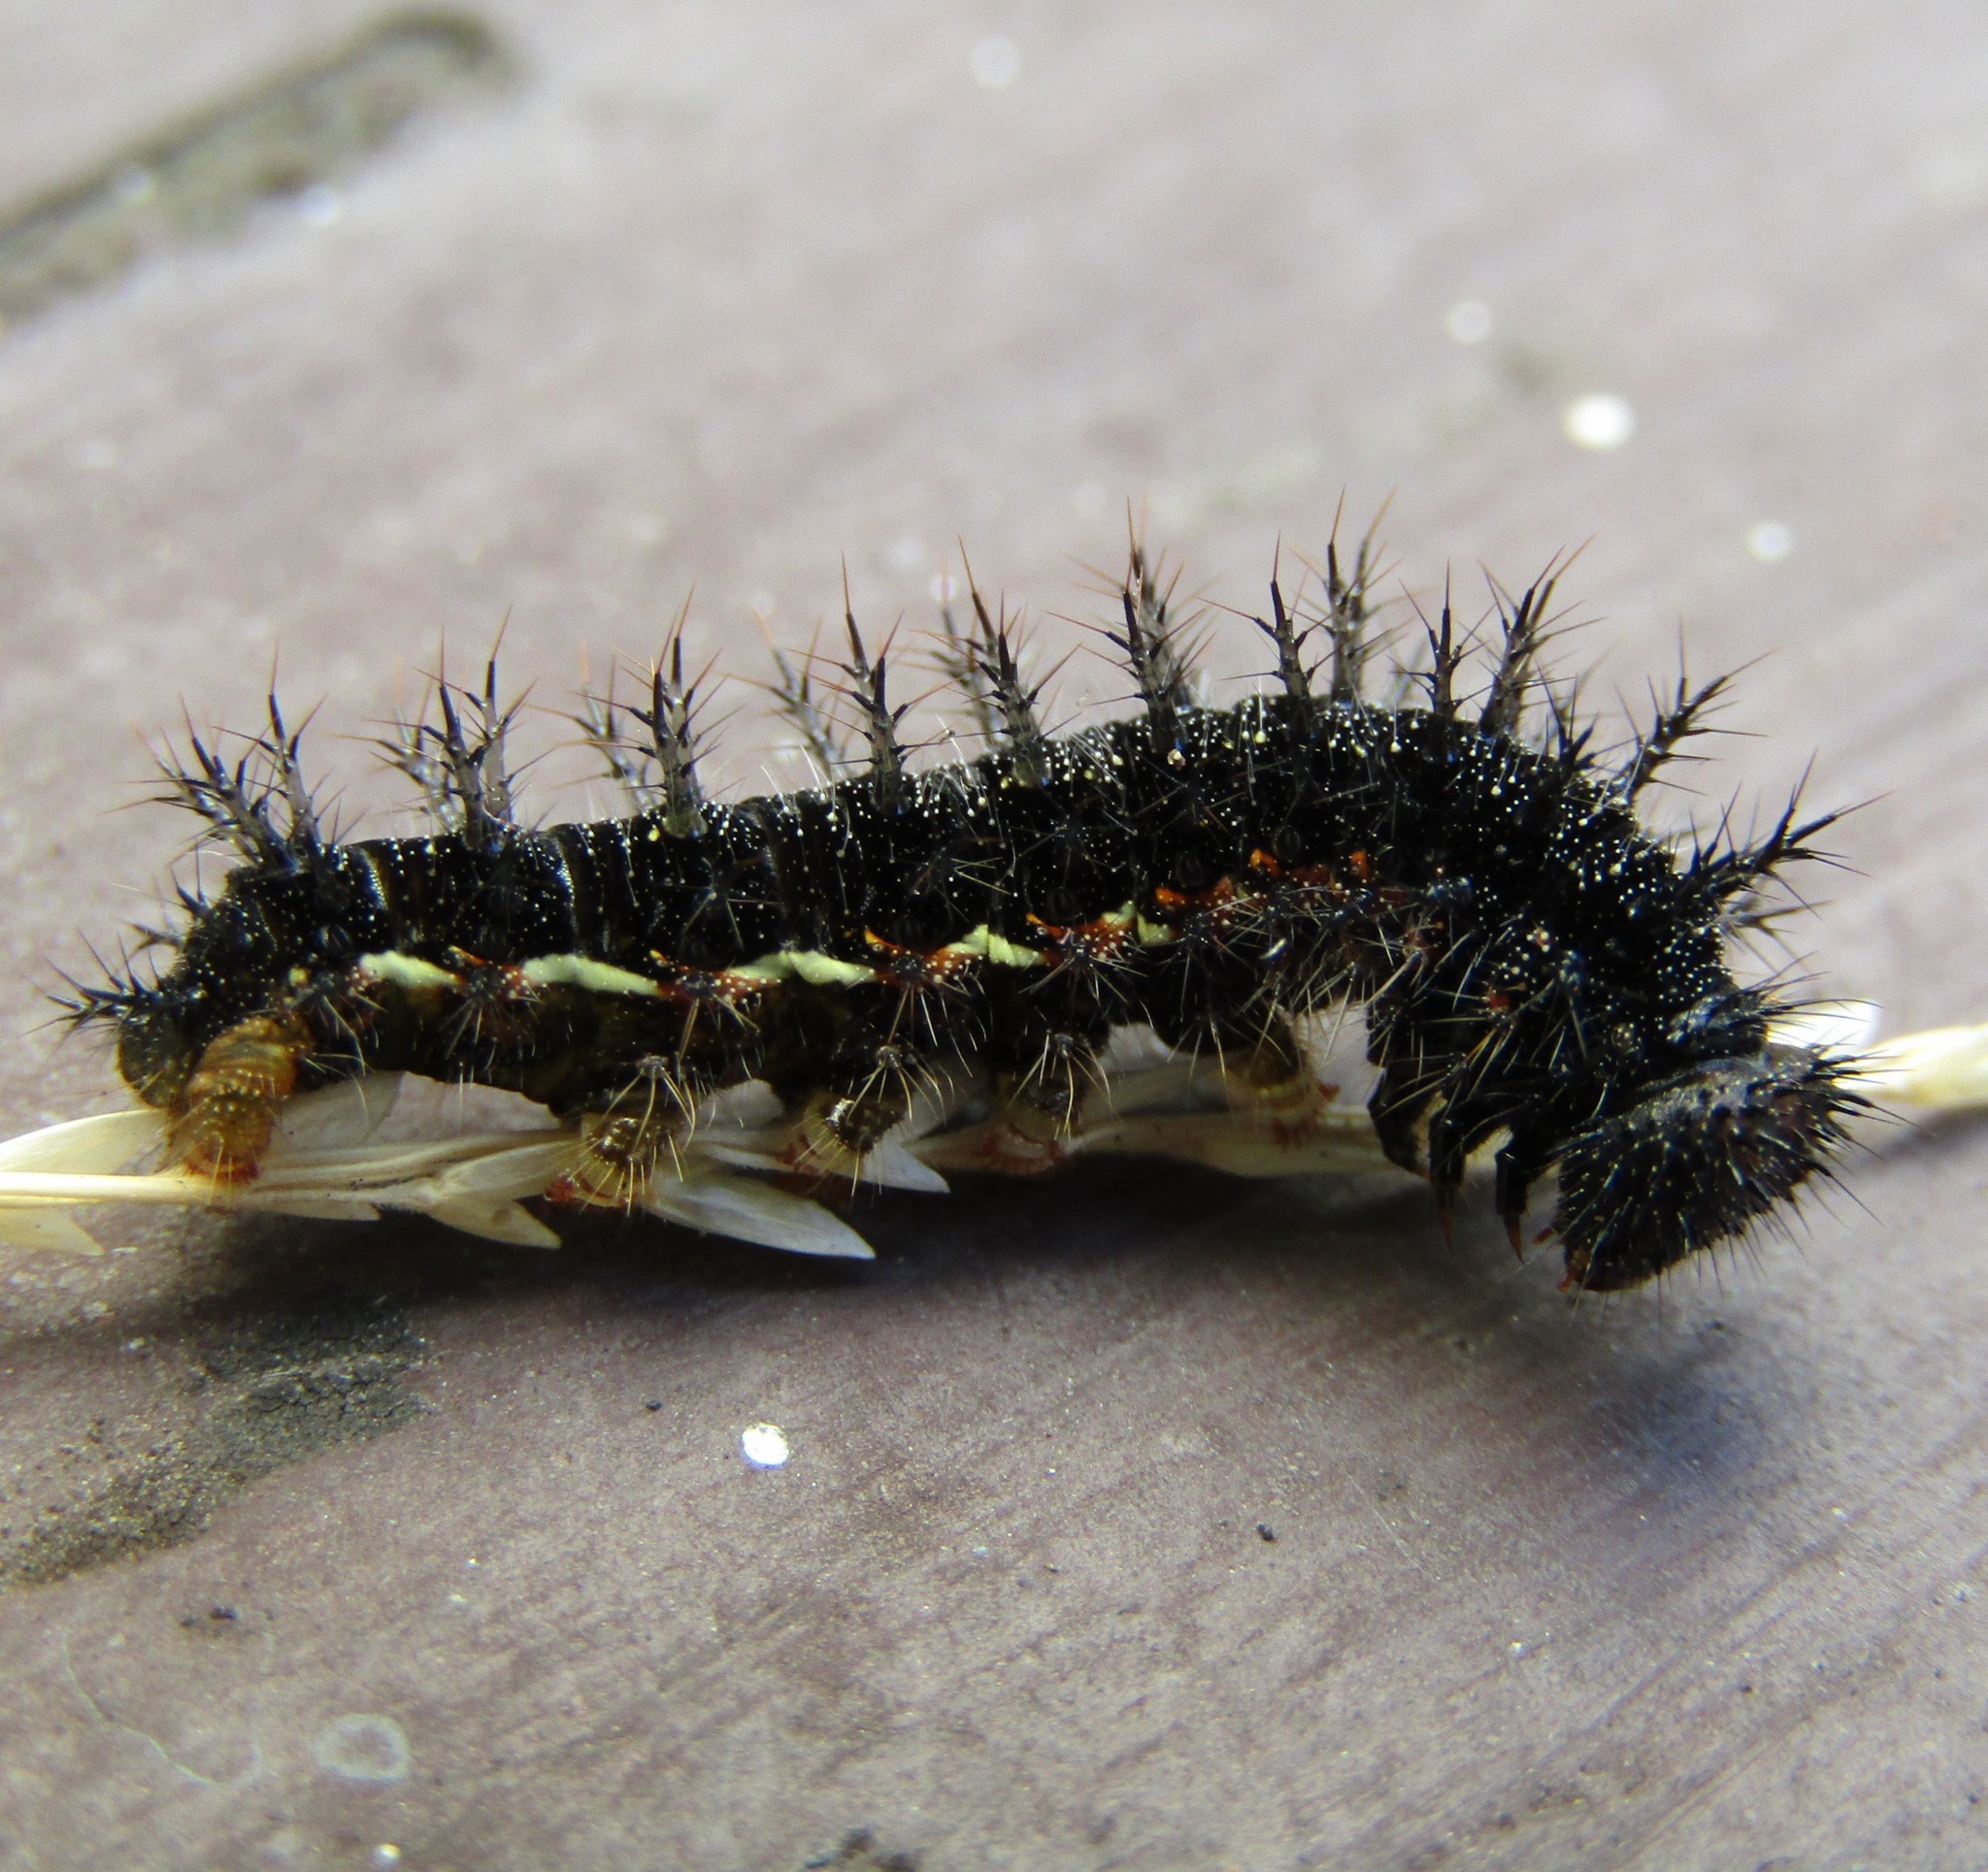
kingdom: Animalia
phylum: Arthropoda
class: Insecta
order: Lepidoptera
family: Nymphalidae
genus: Vanessa
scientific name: Vanessa gonerilla
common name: New zealand red admiral
